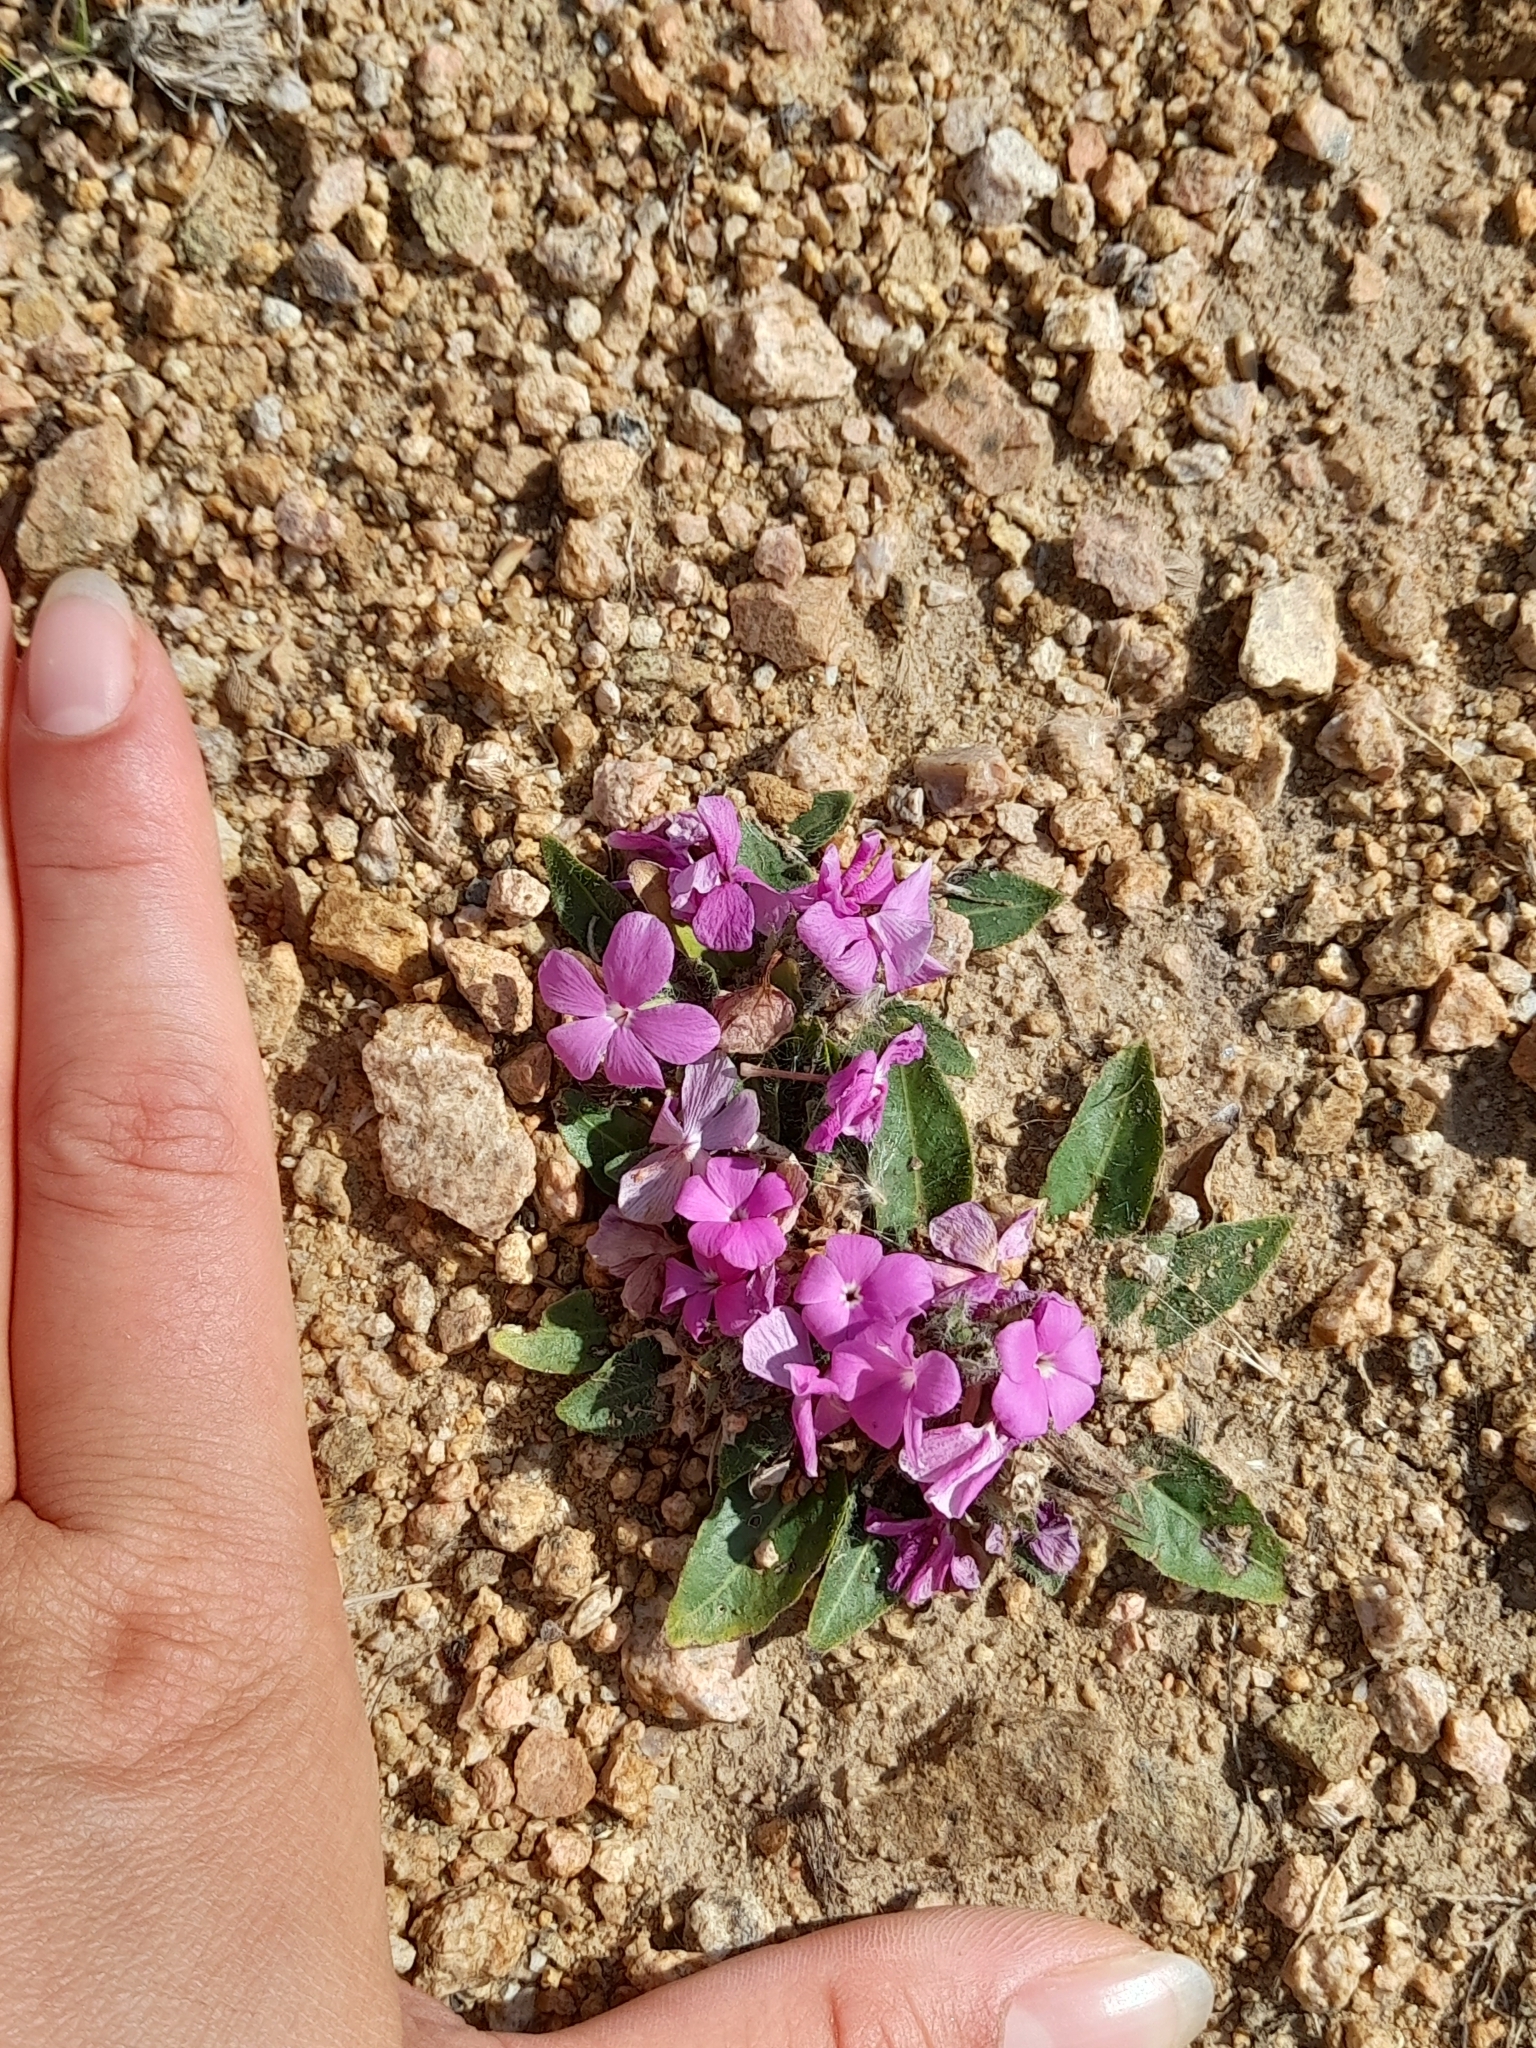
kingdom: Plantae
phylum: Tracheophyta
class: Magnoliopsida
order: Lamiales
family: Acanthaceae
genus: Stenandrium
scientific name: Stenandrium dulce
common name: Pinklet
